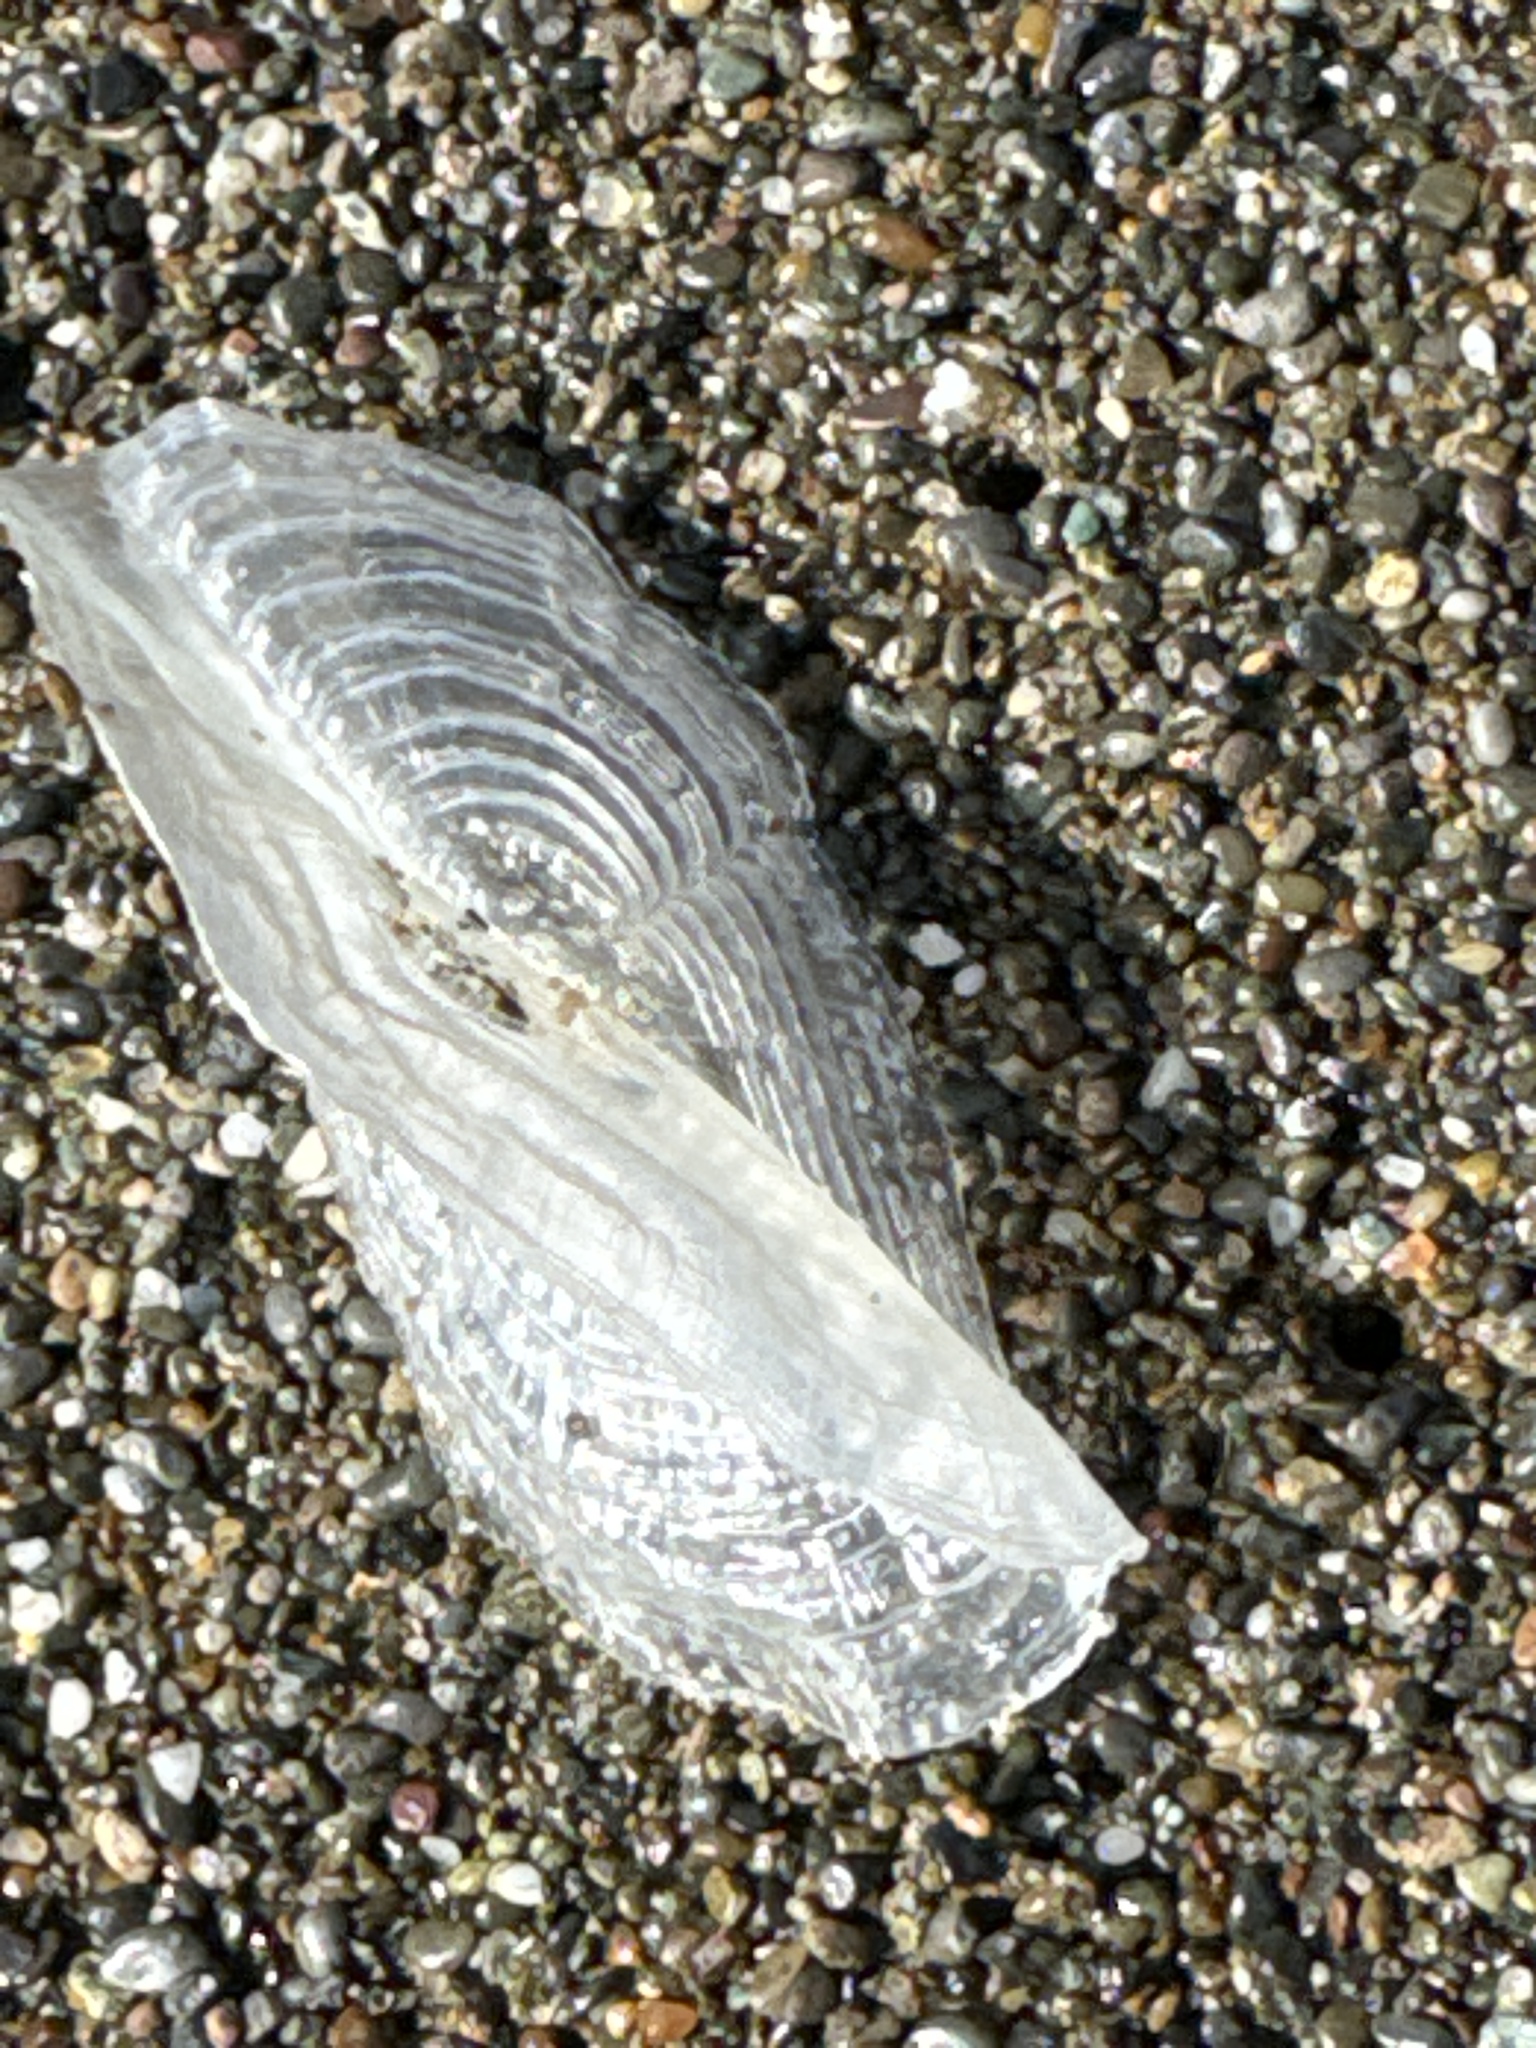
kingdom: Animalia
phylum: Cnidaria
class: Hydrozoa
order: Anthoathecata
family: Porpitidae
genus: Velella
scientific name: Velella velella
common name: By-the-wind-sailor
